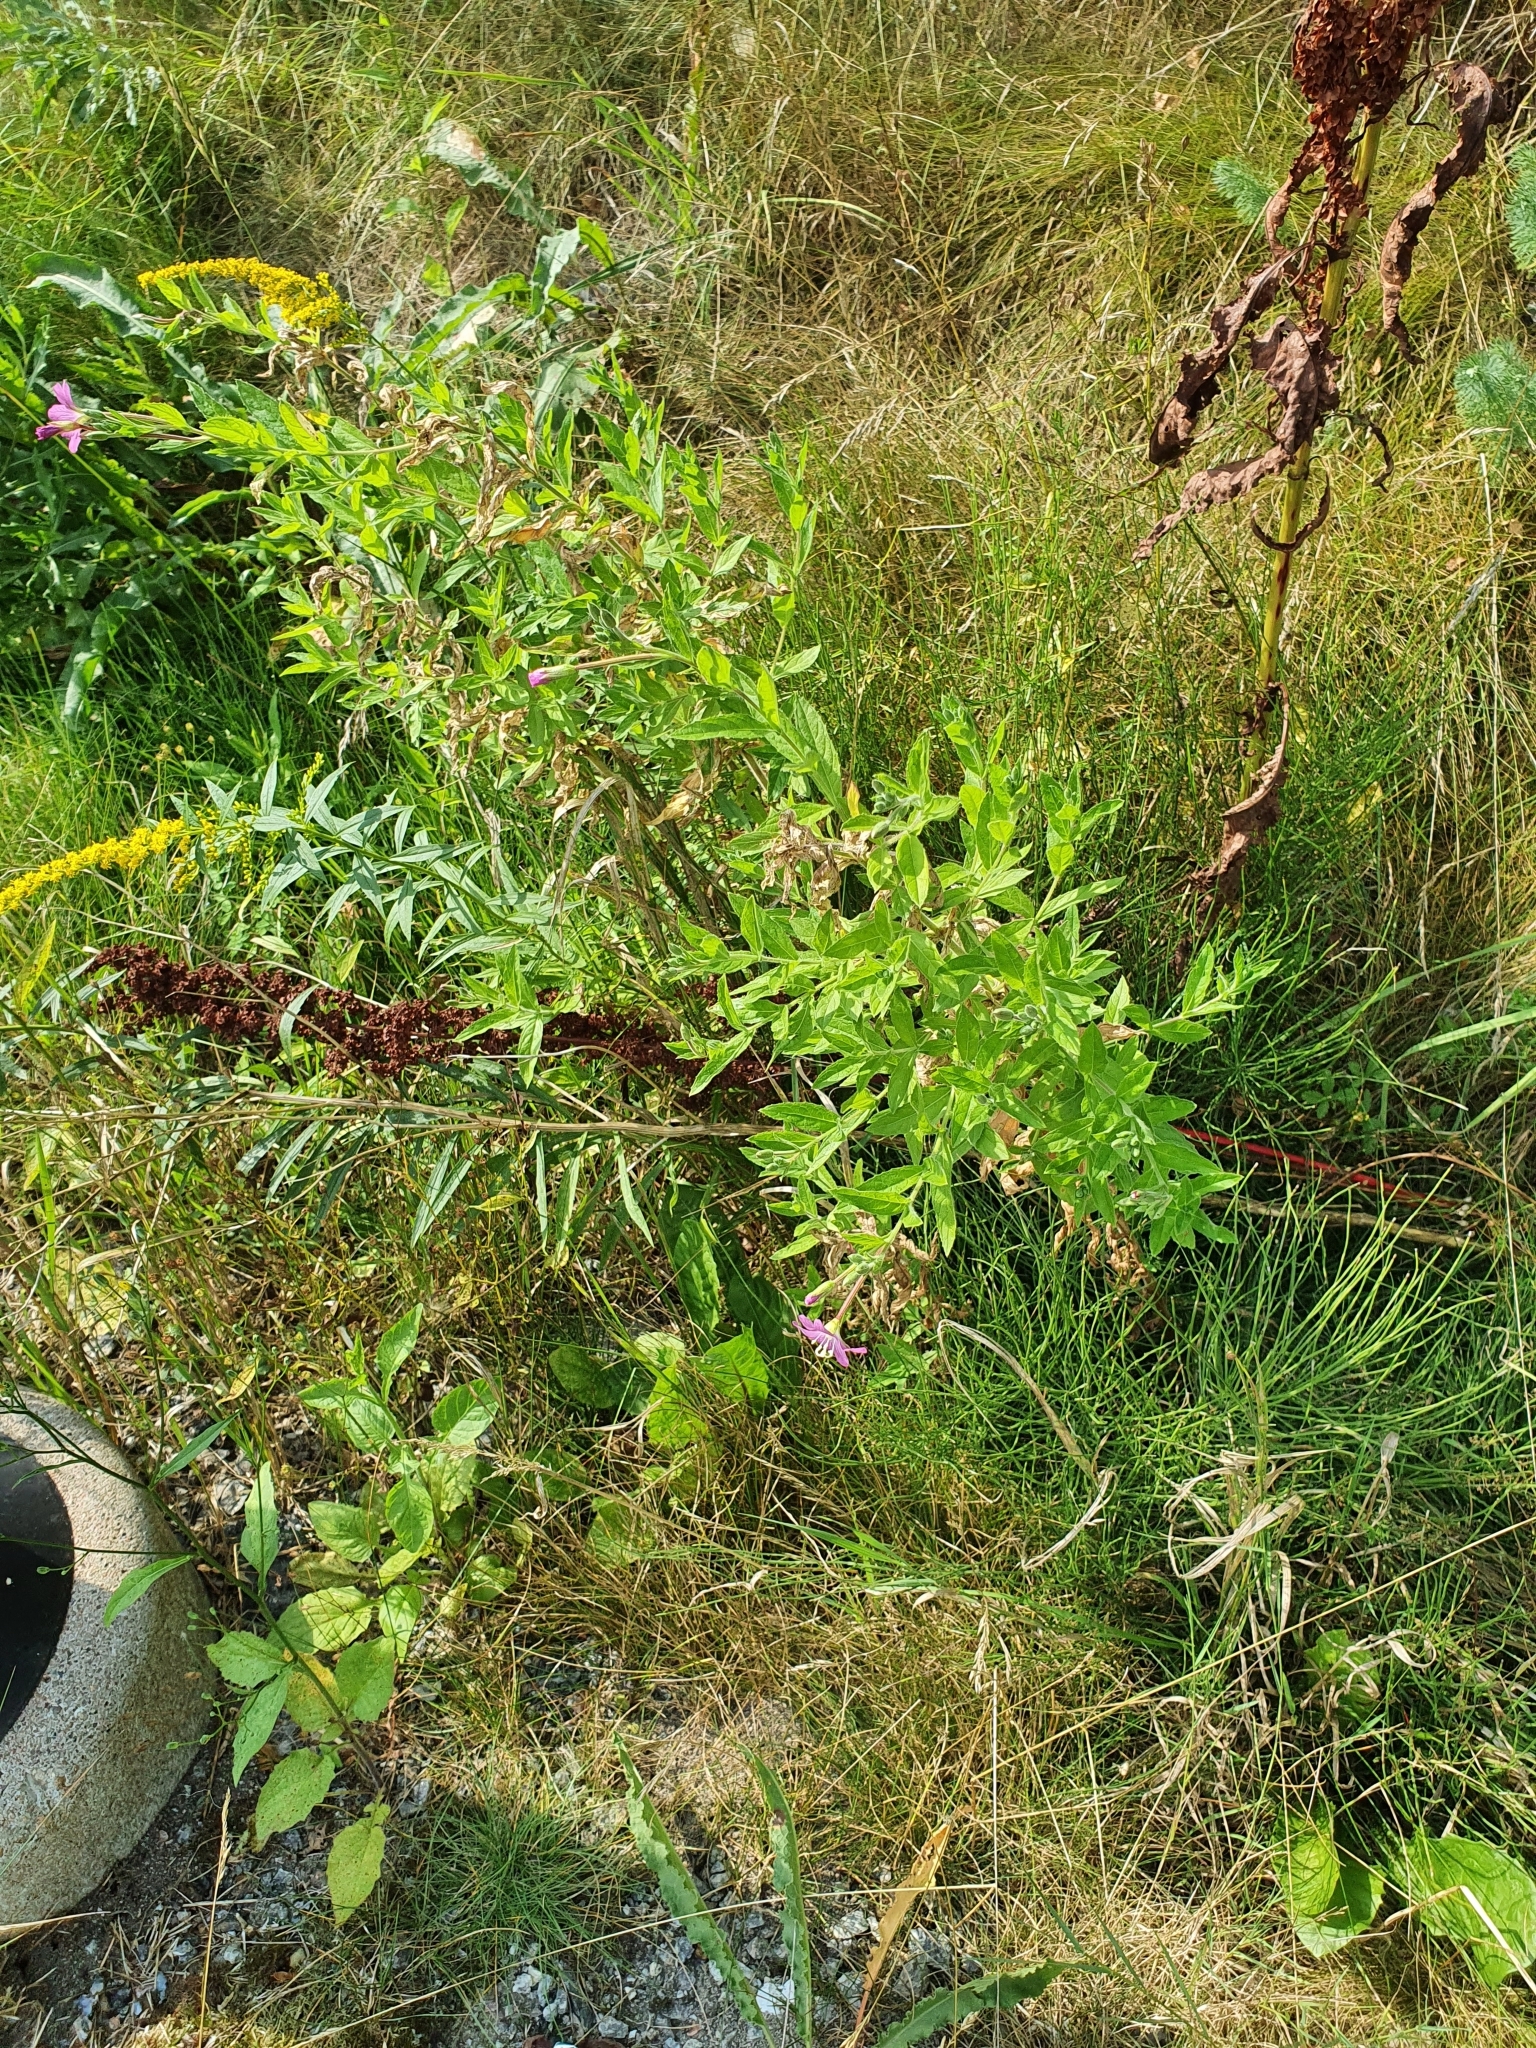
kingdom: Plantae
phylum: Tracheophyta
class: Magnoliopsida
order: Myrtales
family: Onagraceae
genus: Epilobium
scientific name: Epilobium hirsutum
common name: Great willowherb
